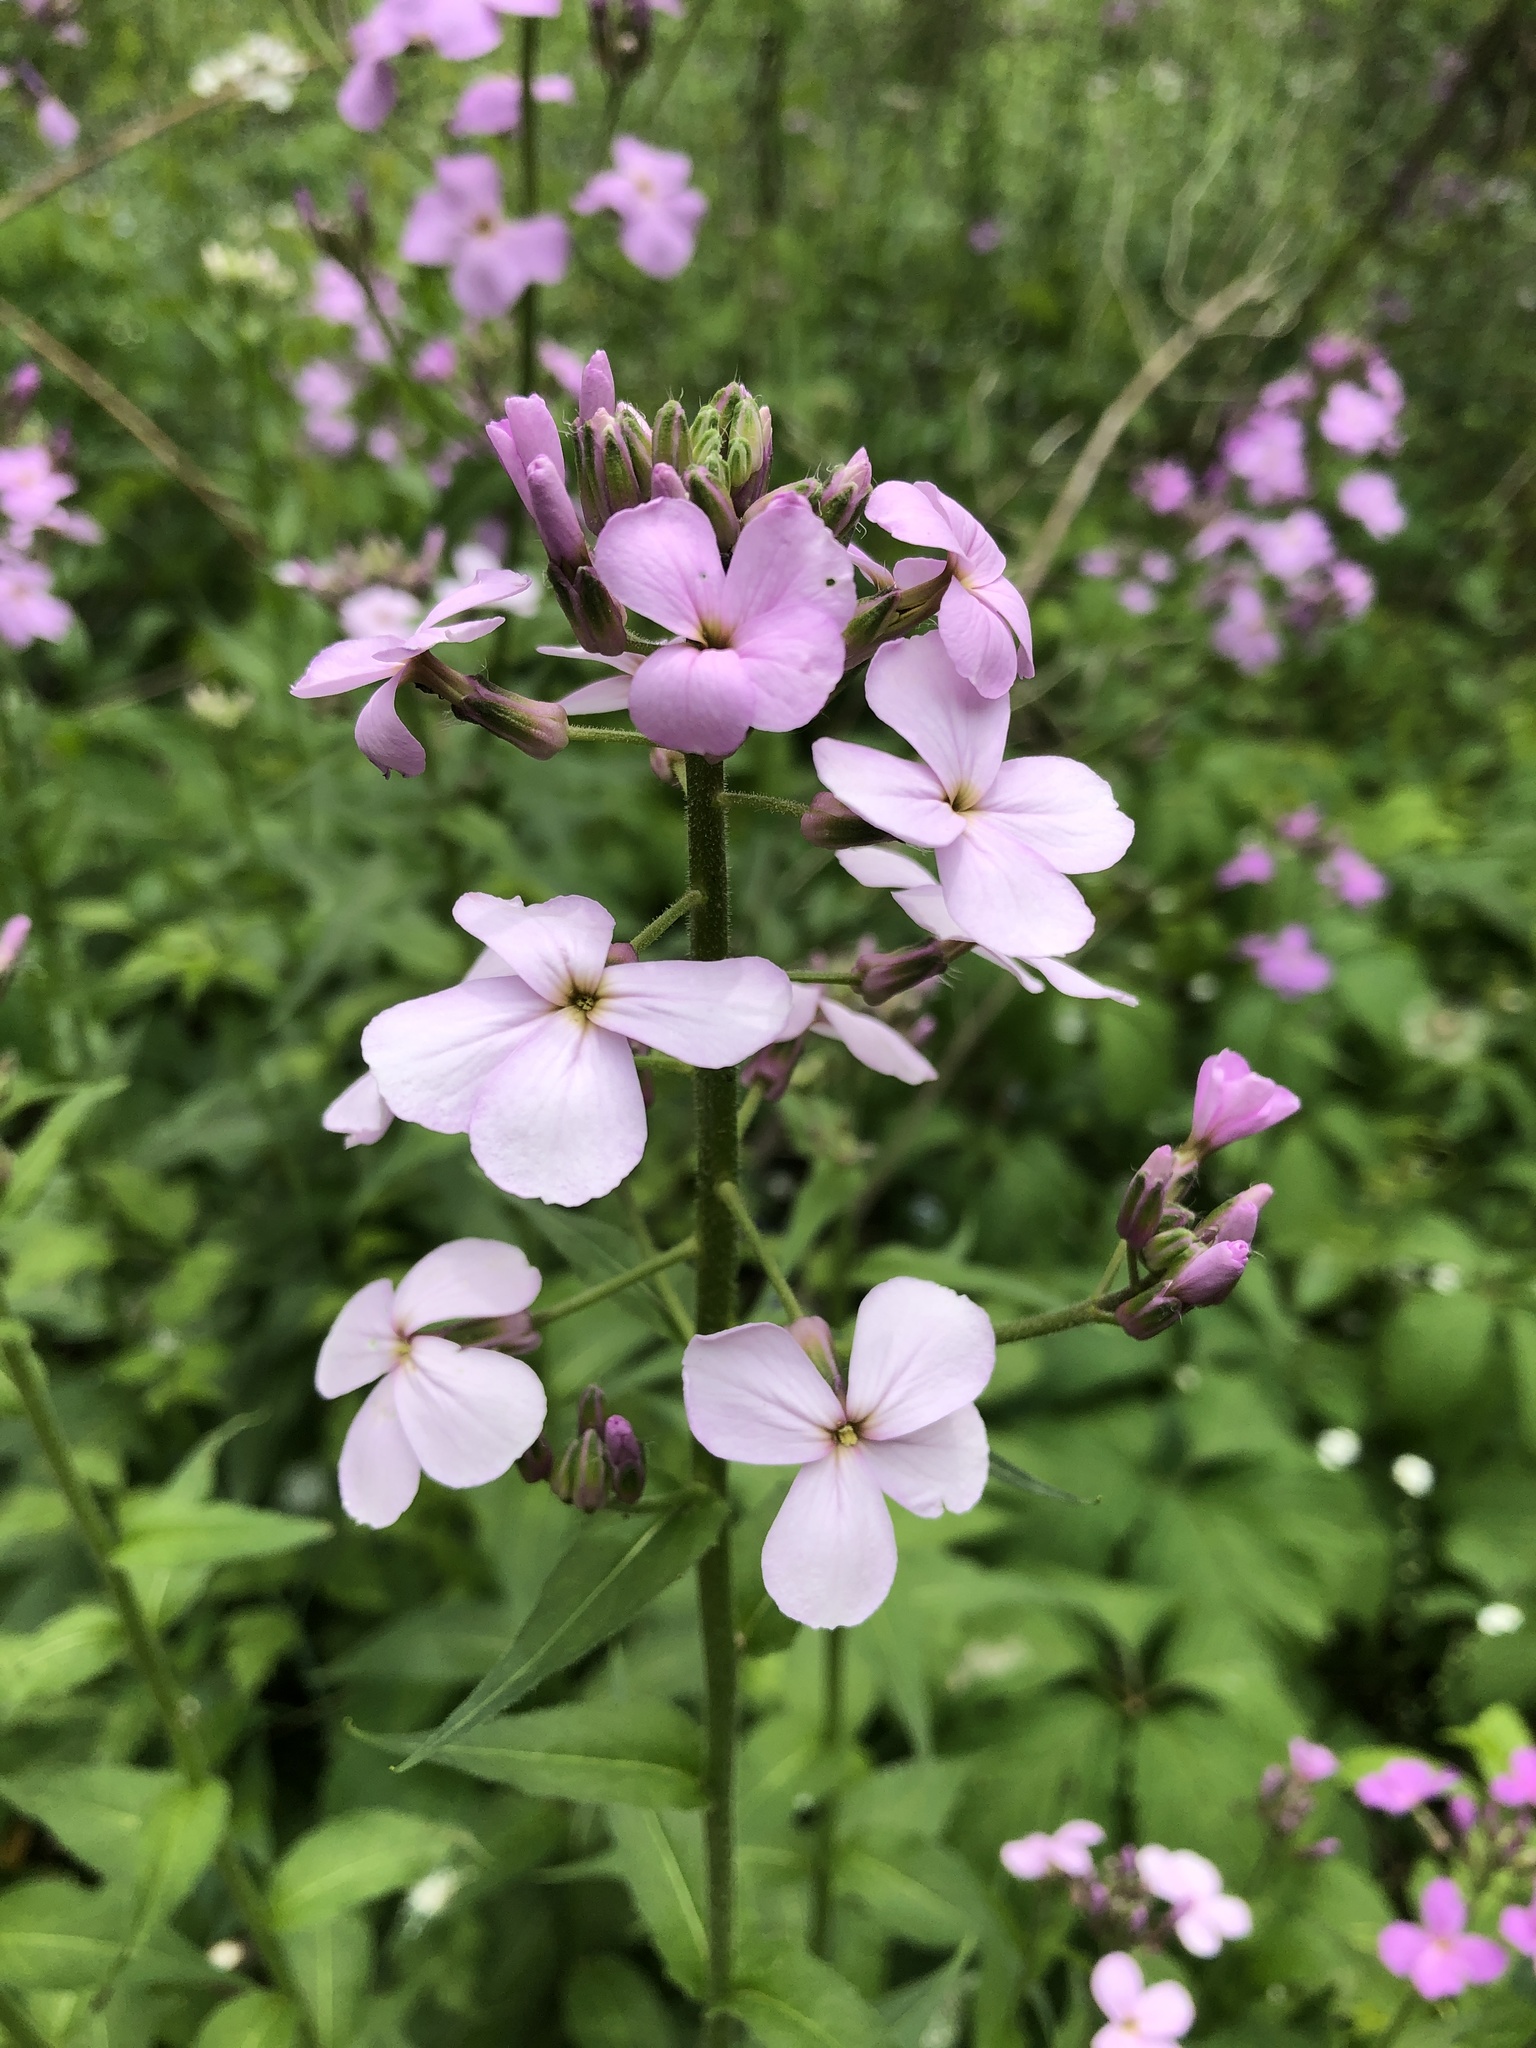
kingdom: Plantae
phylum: Tracheophyta
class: Magnoliopsida
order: Brassicales
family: Brassicaceae
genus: Hesperis
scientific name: Hesperis matronalis
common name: Dame's-violet
